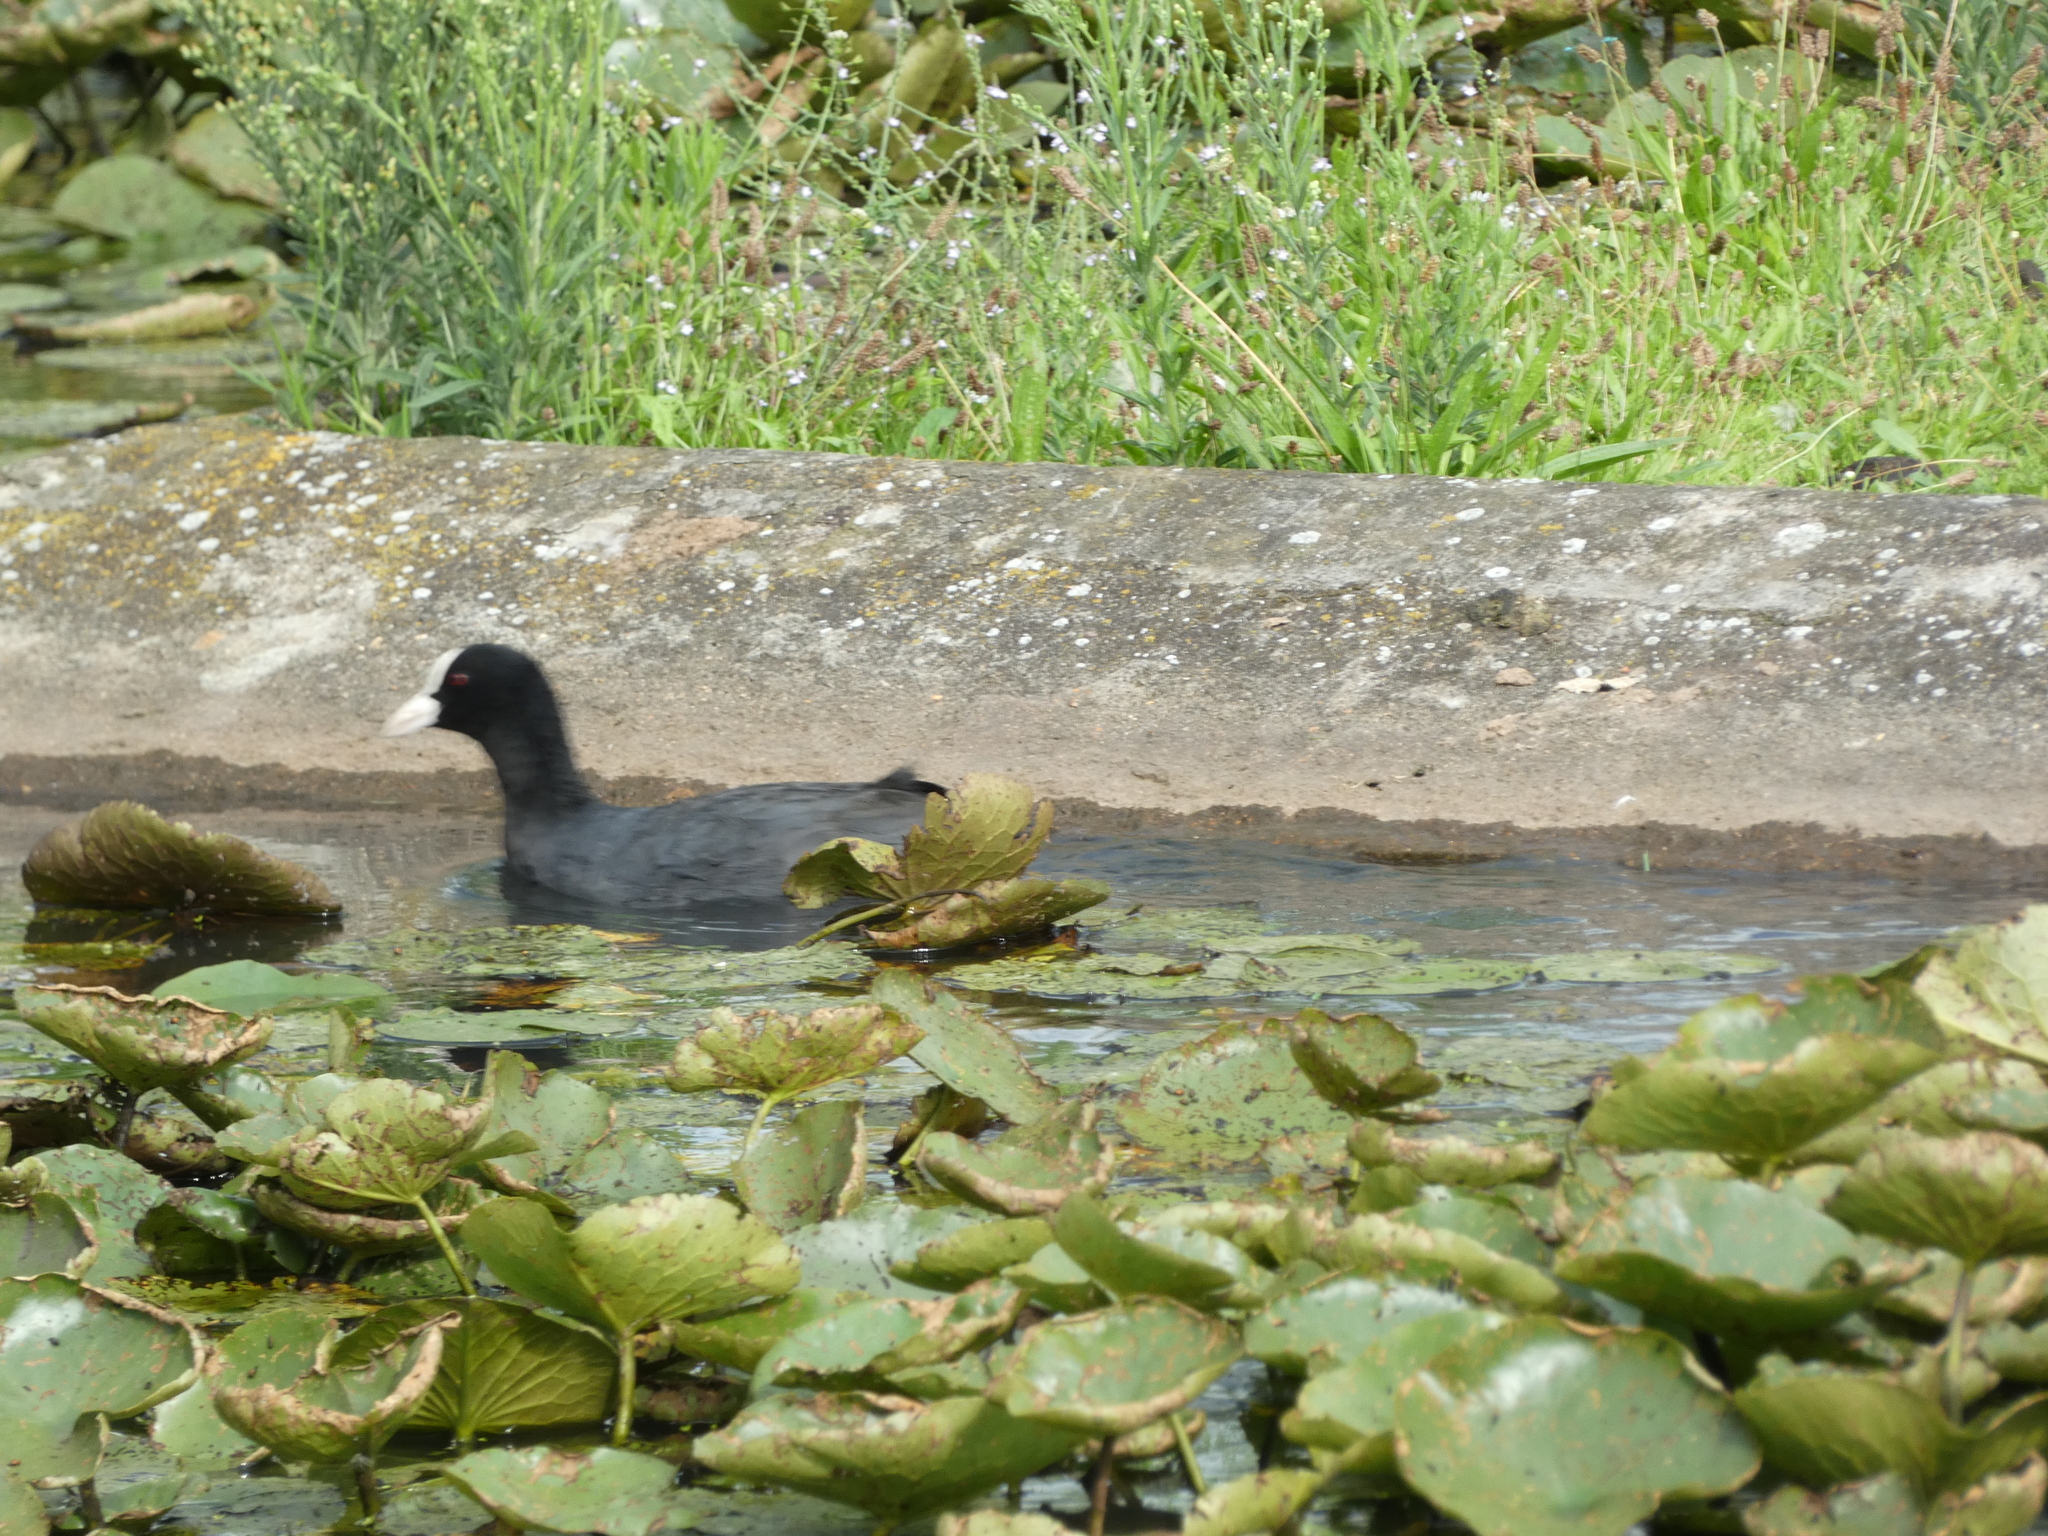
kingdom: Animalia
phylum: Chordata
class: Aves
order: Gruiformes
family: Rallidae
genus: Fulica
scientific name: Fulica atra
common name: Eurasian coot
